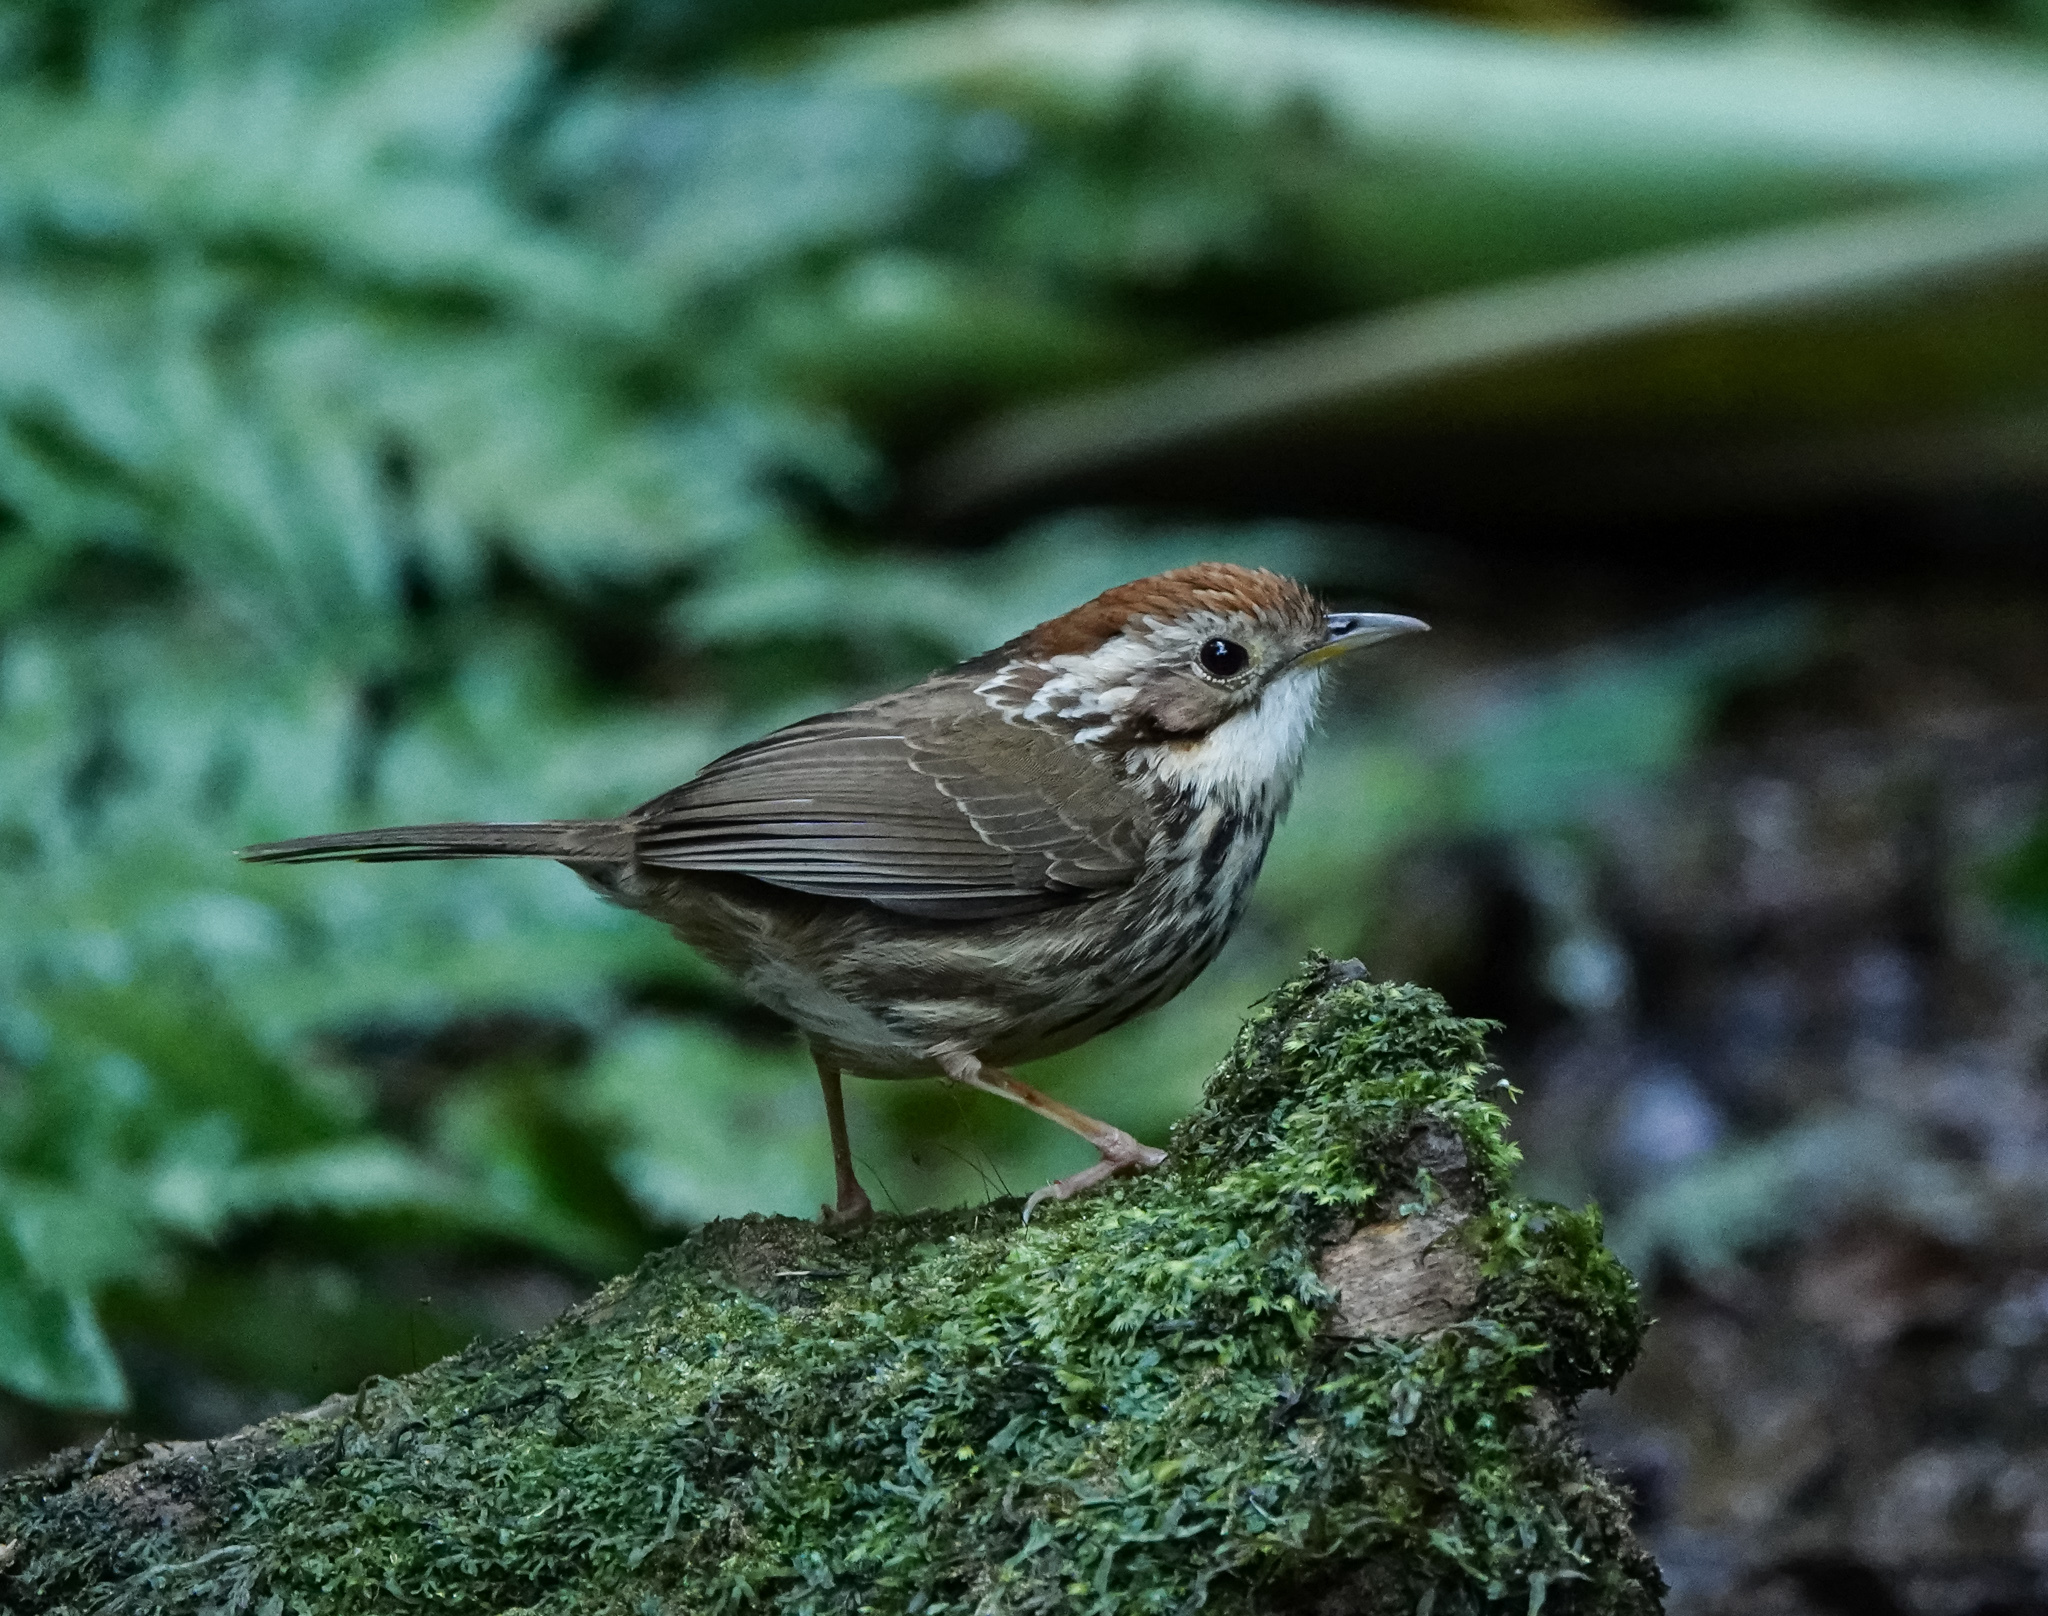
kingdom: Animalia
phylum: Chordata
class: Aves
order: Passeriformes
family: Pellorneidae
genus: Pellorneum
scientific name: Pellorneum ruficeps
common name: Puff-throated babbler
